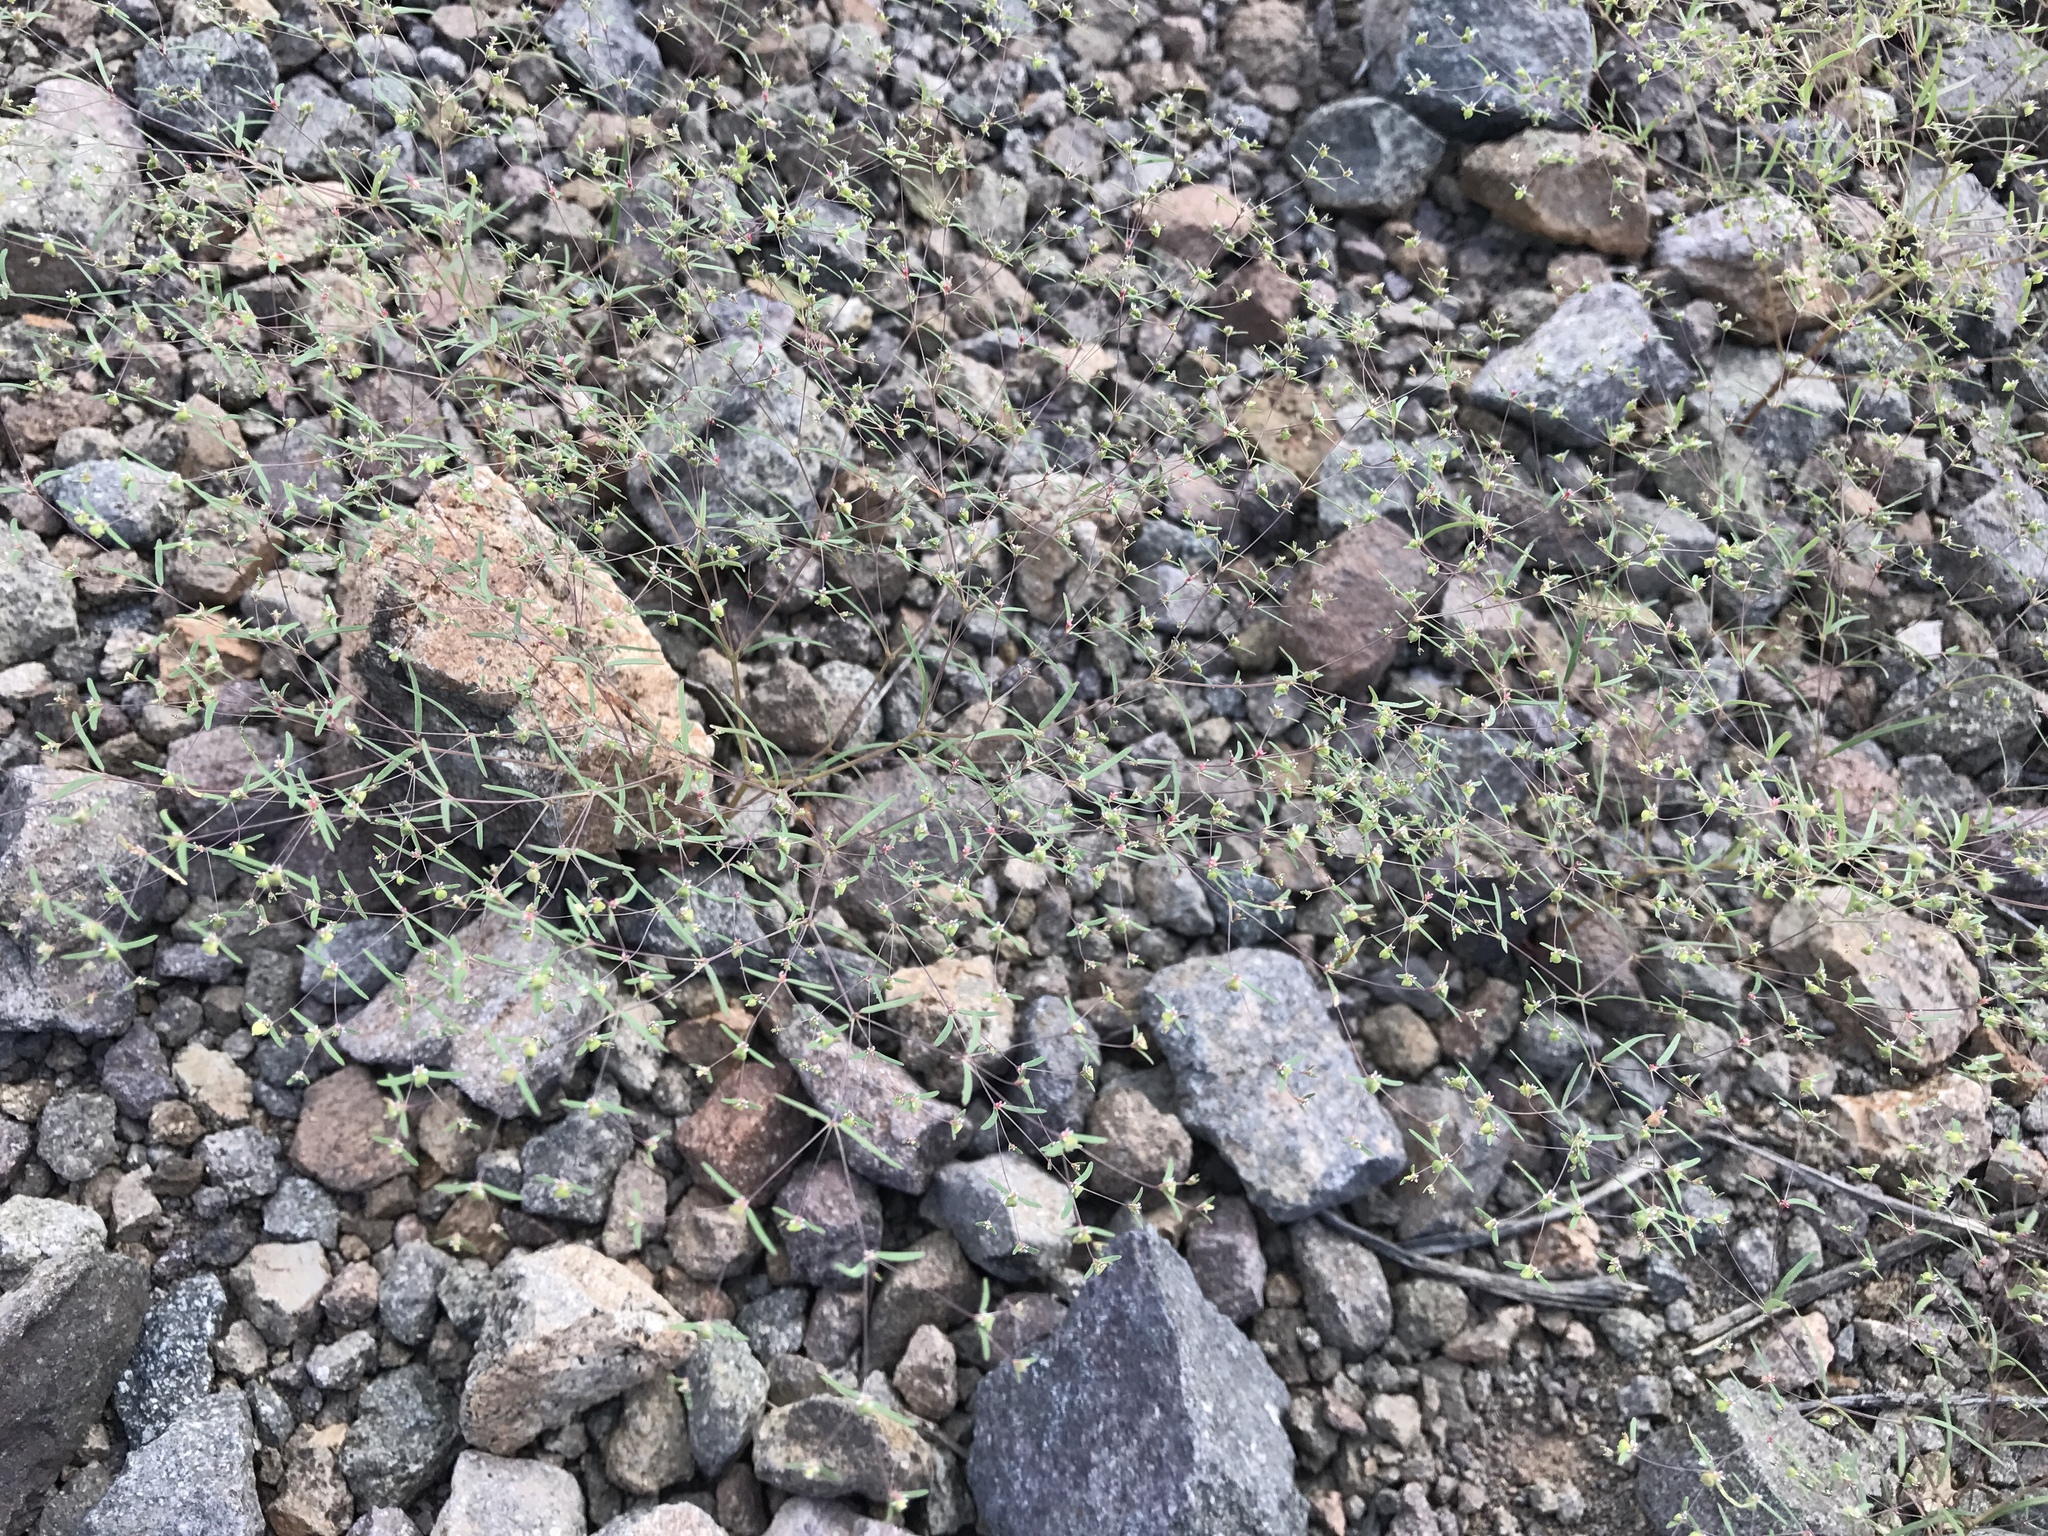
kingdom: Plantae
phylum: Tracheophyta
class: Magnoliopsida
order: Malpighiales
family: Euphorbiaceae
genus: Euphorbia
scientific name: Euphorbia gracillima
